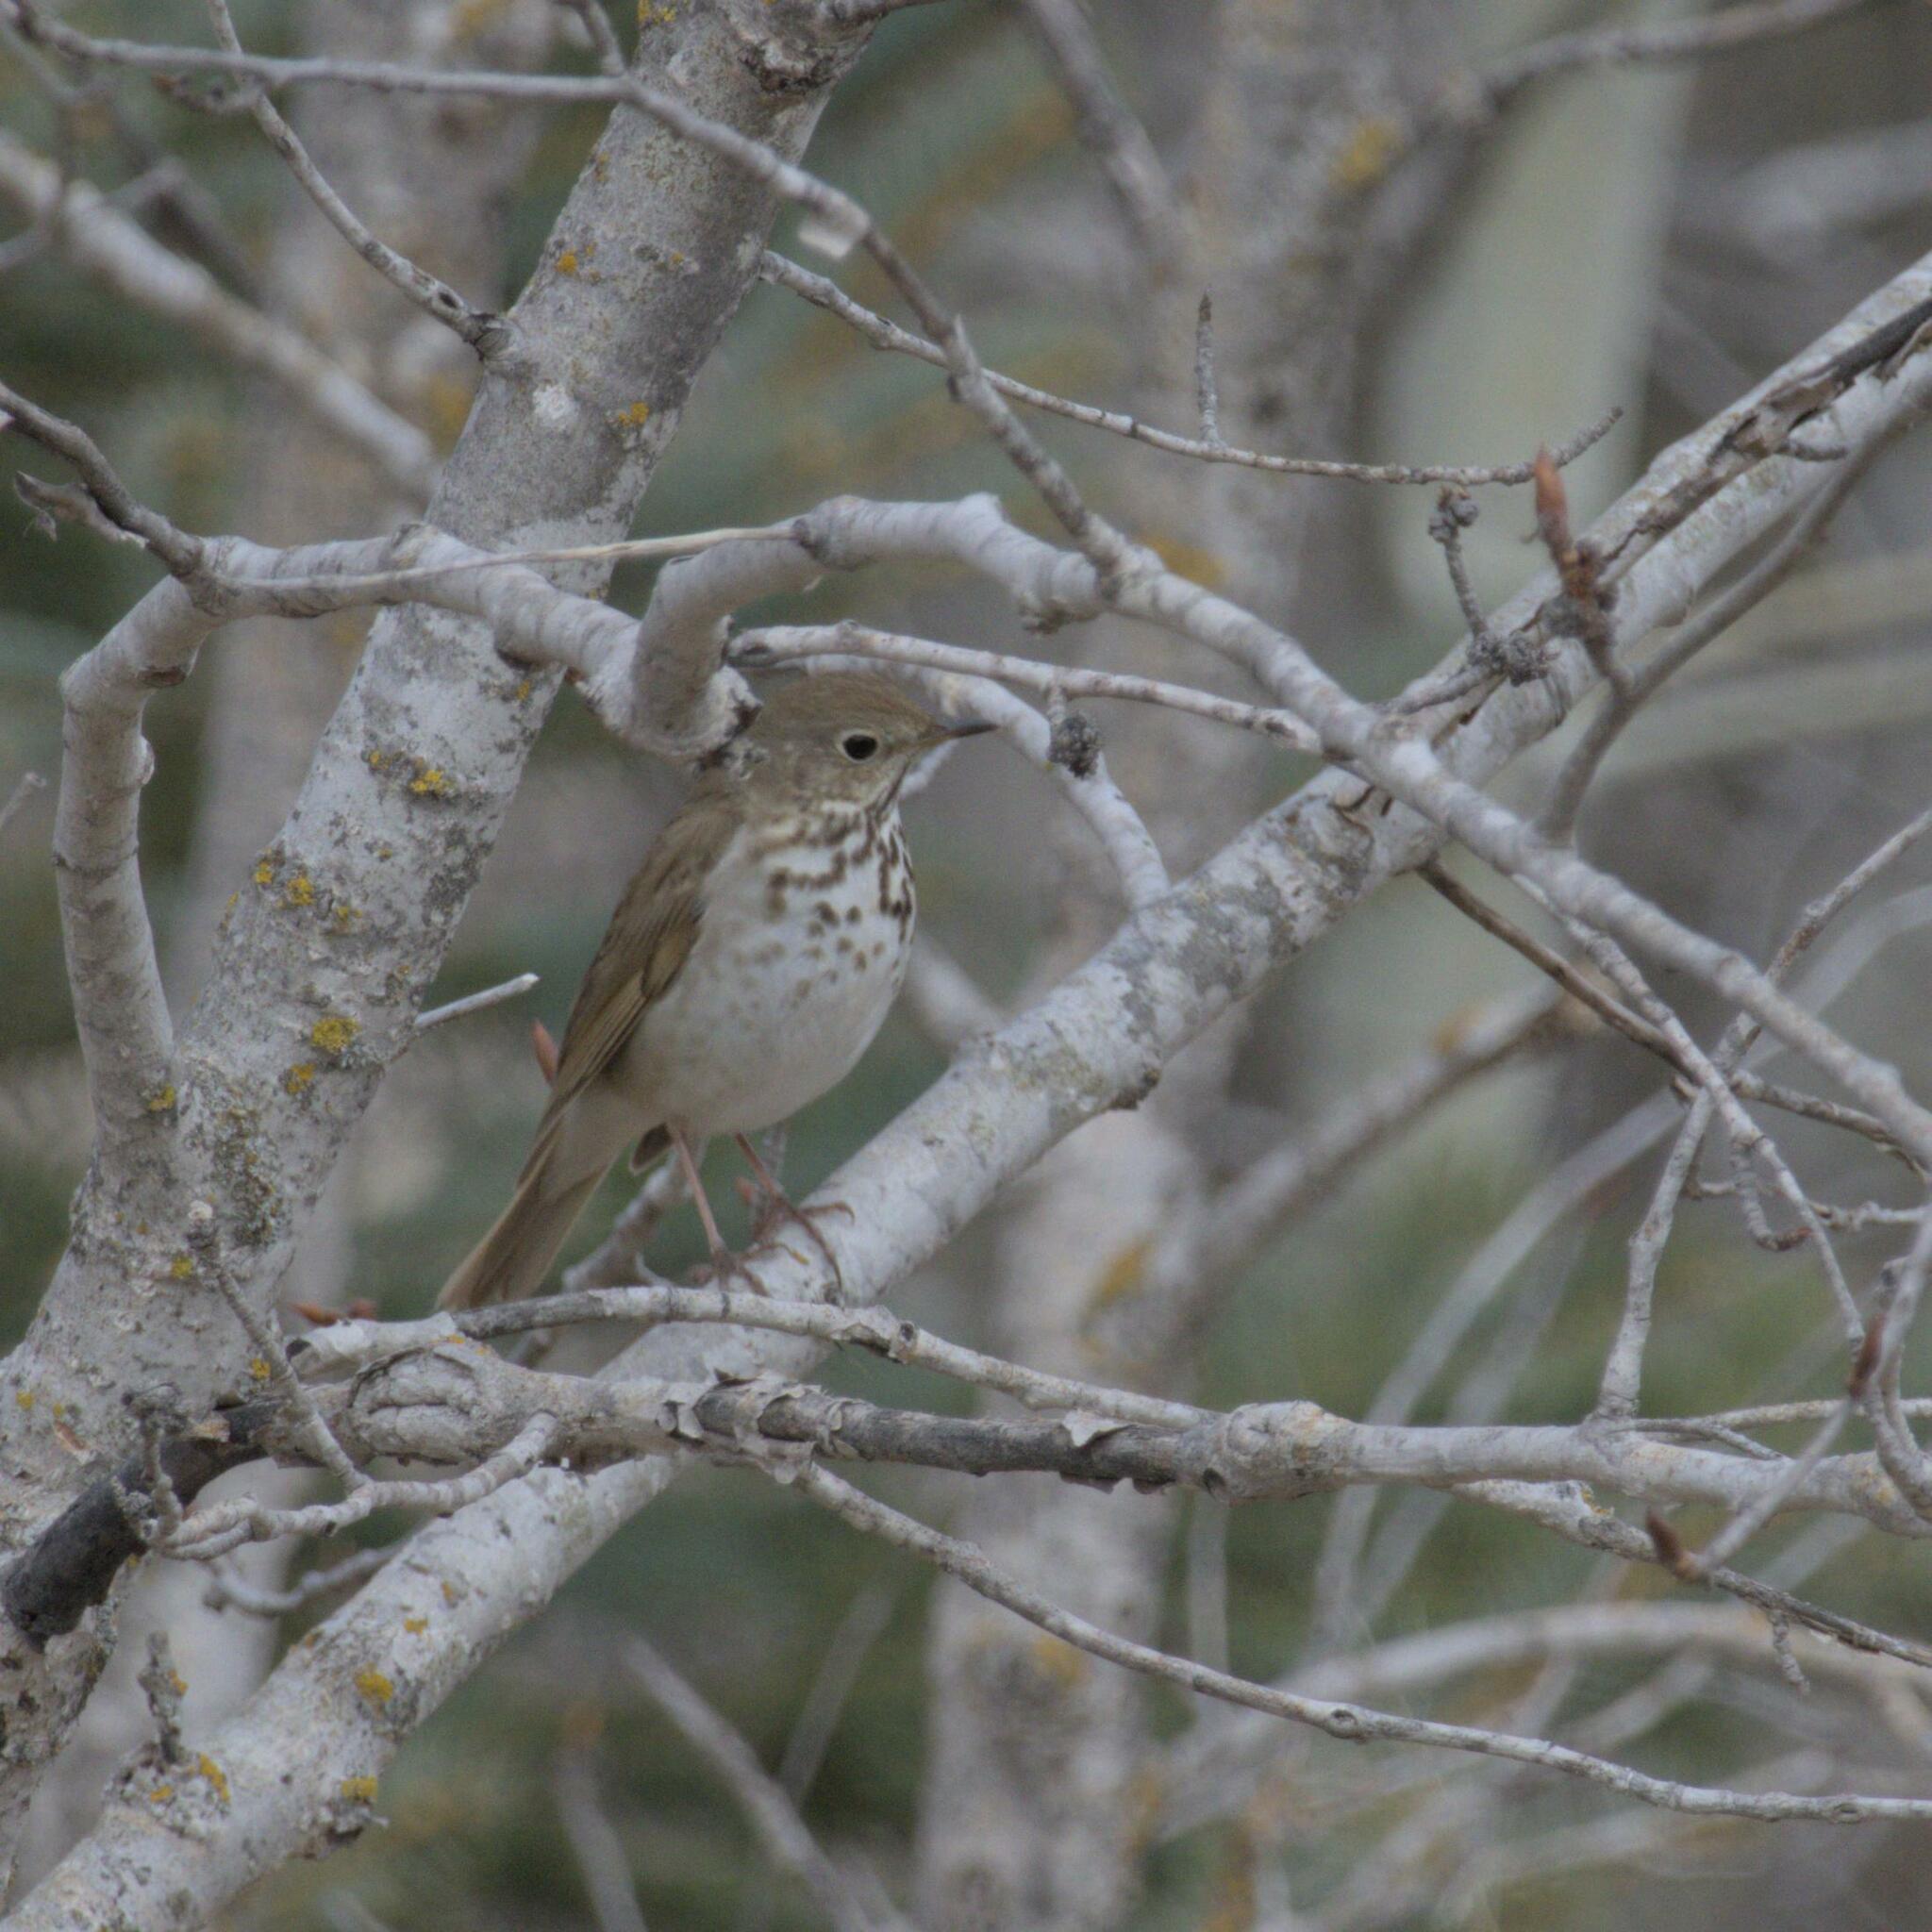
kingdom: Animalia
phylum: Chordata
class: Aves
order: Passeriformes
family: Turdidae
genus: Catharus
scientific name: Catharus guttatus
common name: Hermit thrush
